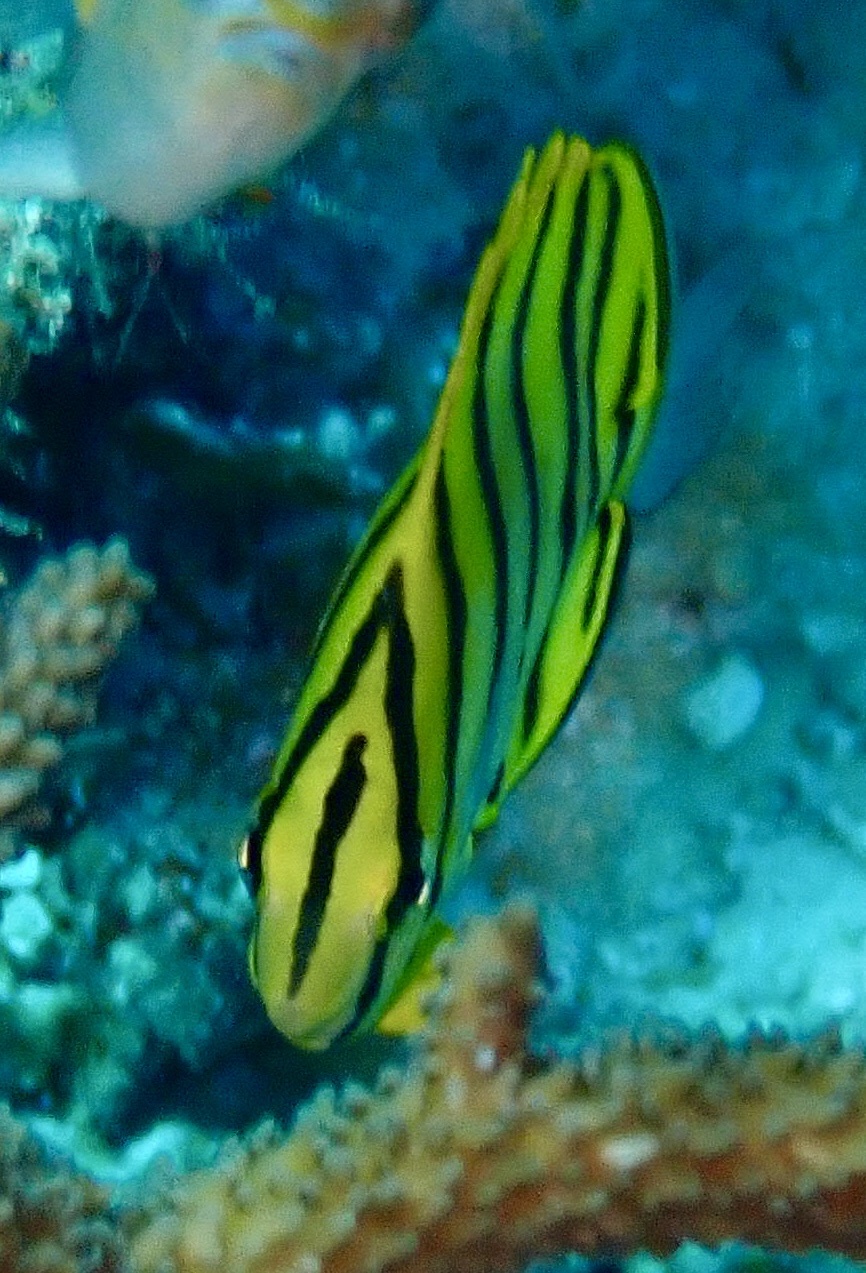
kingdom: Animalia
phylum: Chordata
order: Perciformes
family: Chaetodontidae
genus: Chaetodon
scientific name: Chaetodon octofasciatus
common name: Eightband butterflyfish
